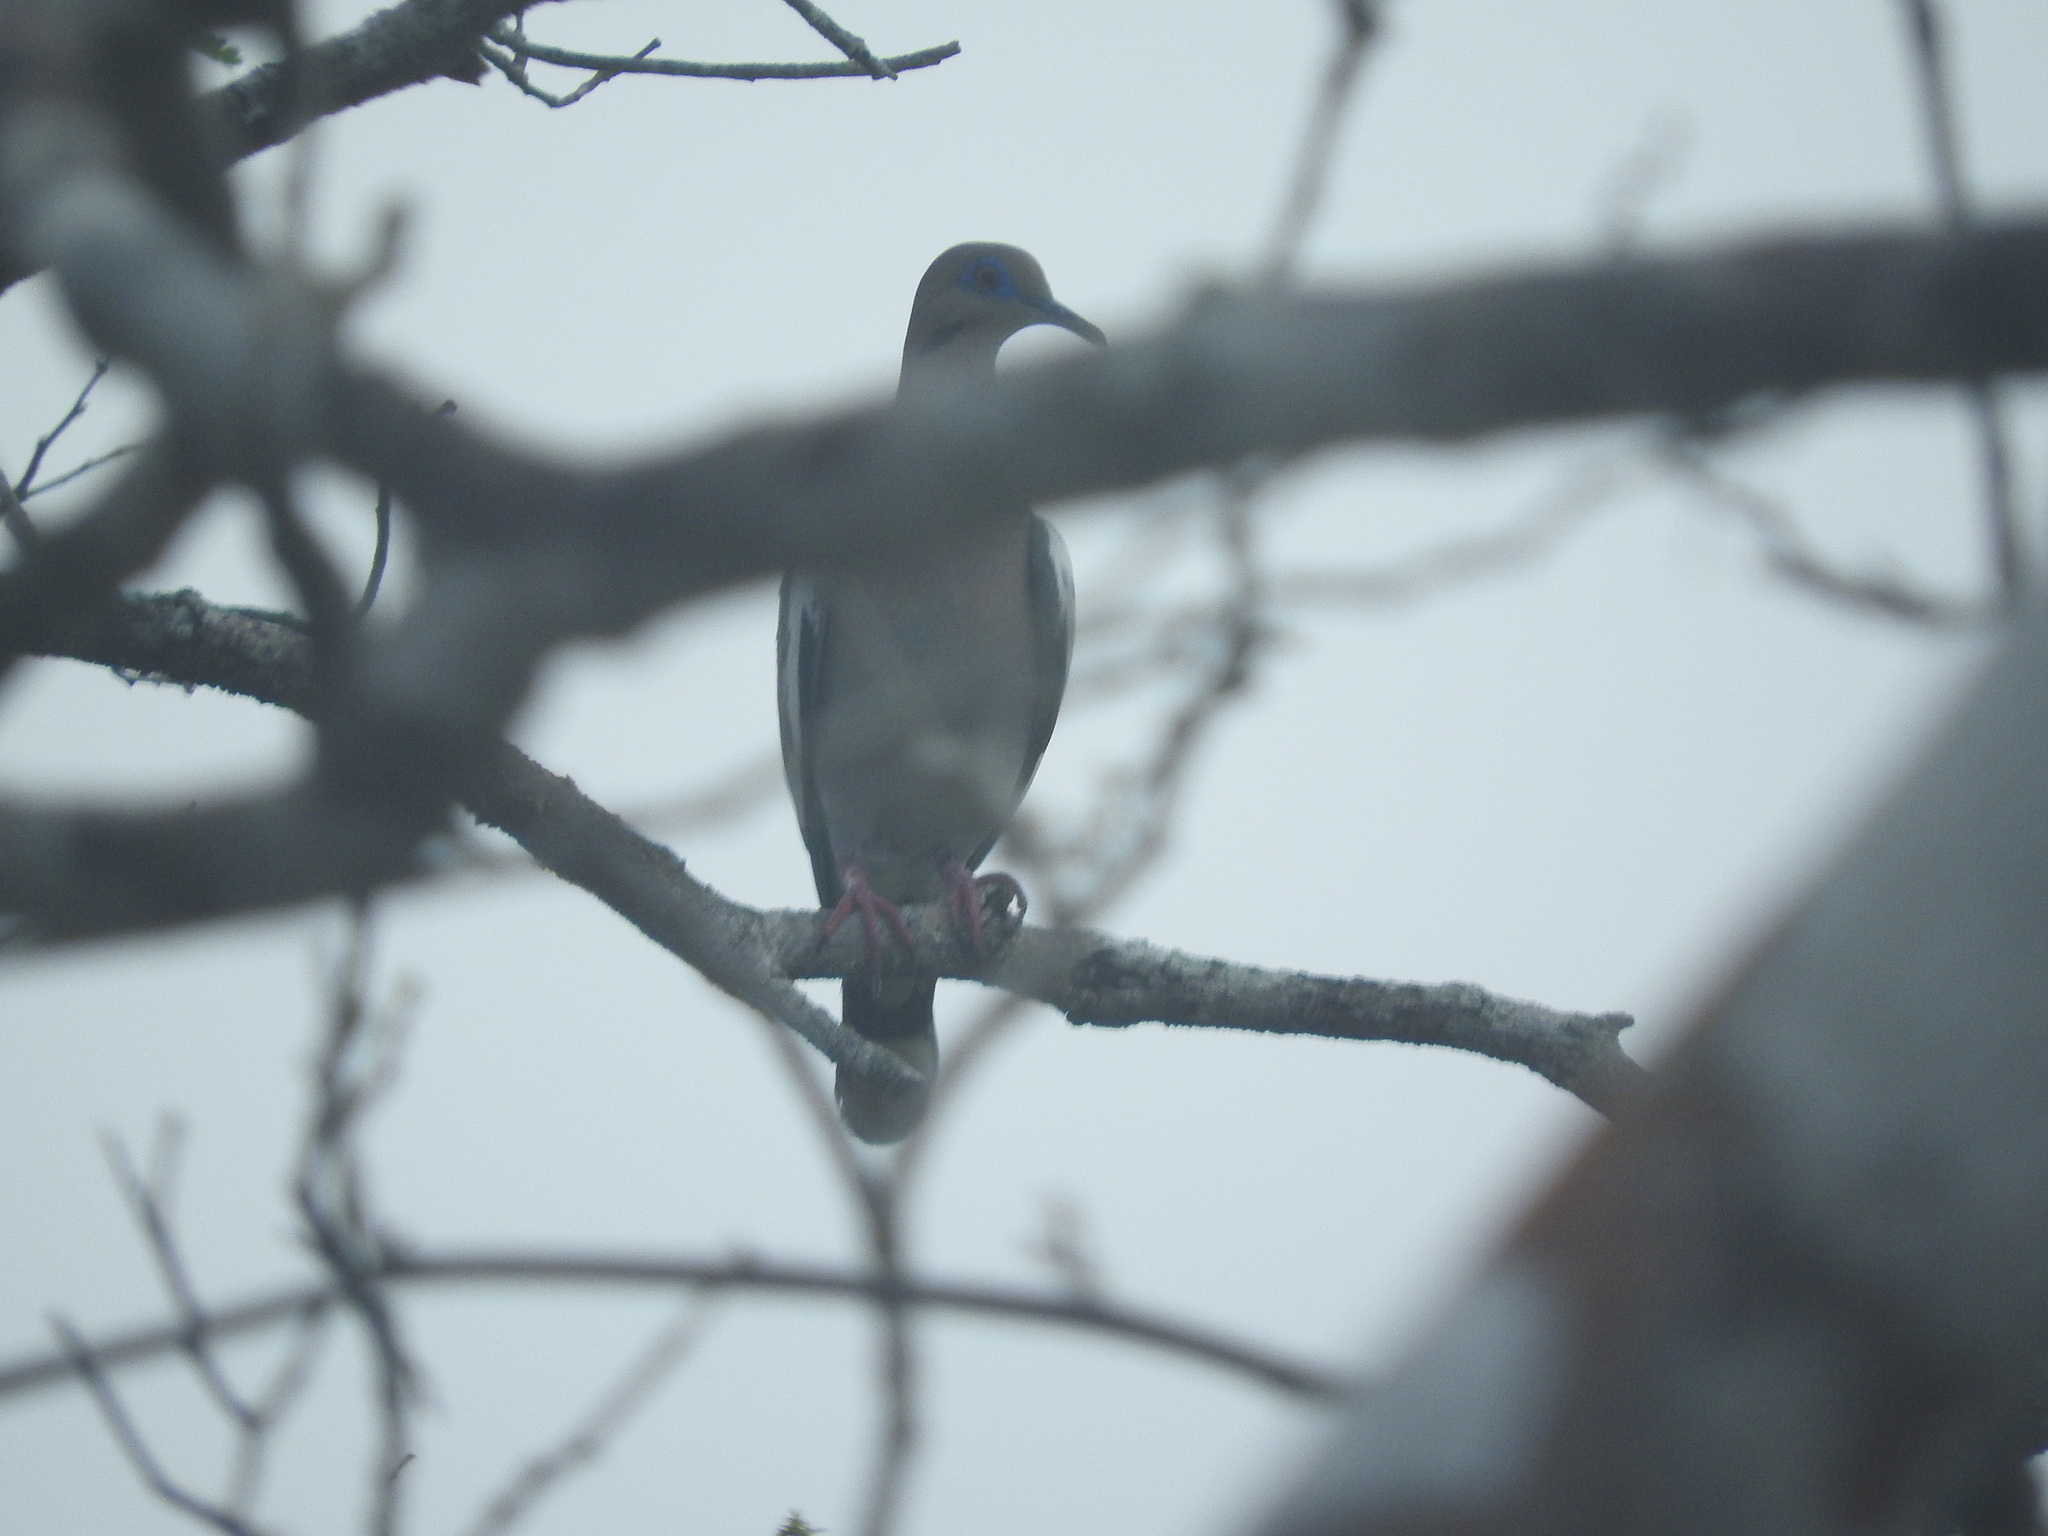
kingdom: Animalia
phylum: Chordata
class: Aves
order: Columbiformes
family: Columbidae
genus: Zenaida
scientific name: Zenaida asiatica
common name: White-winged dove
